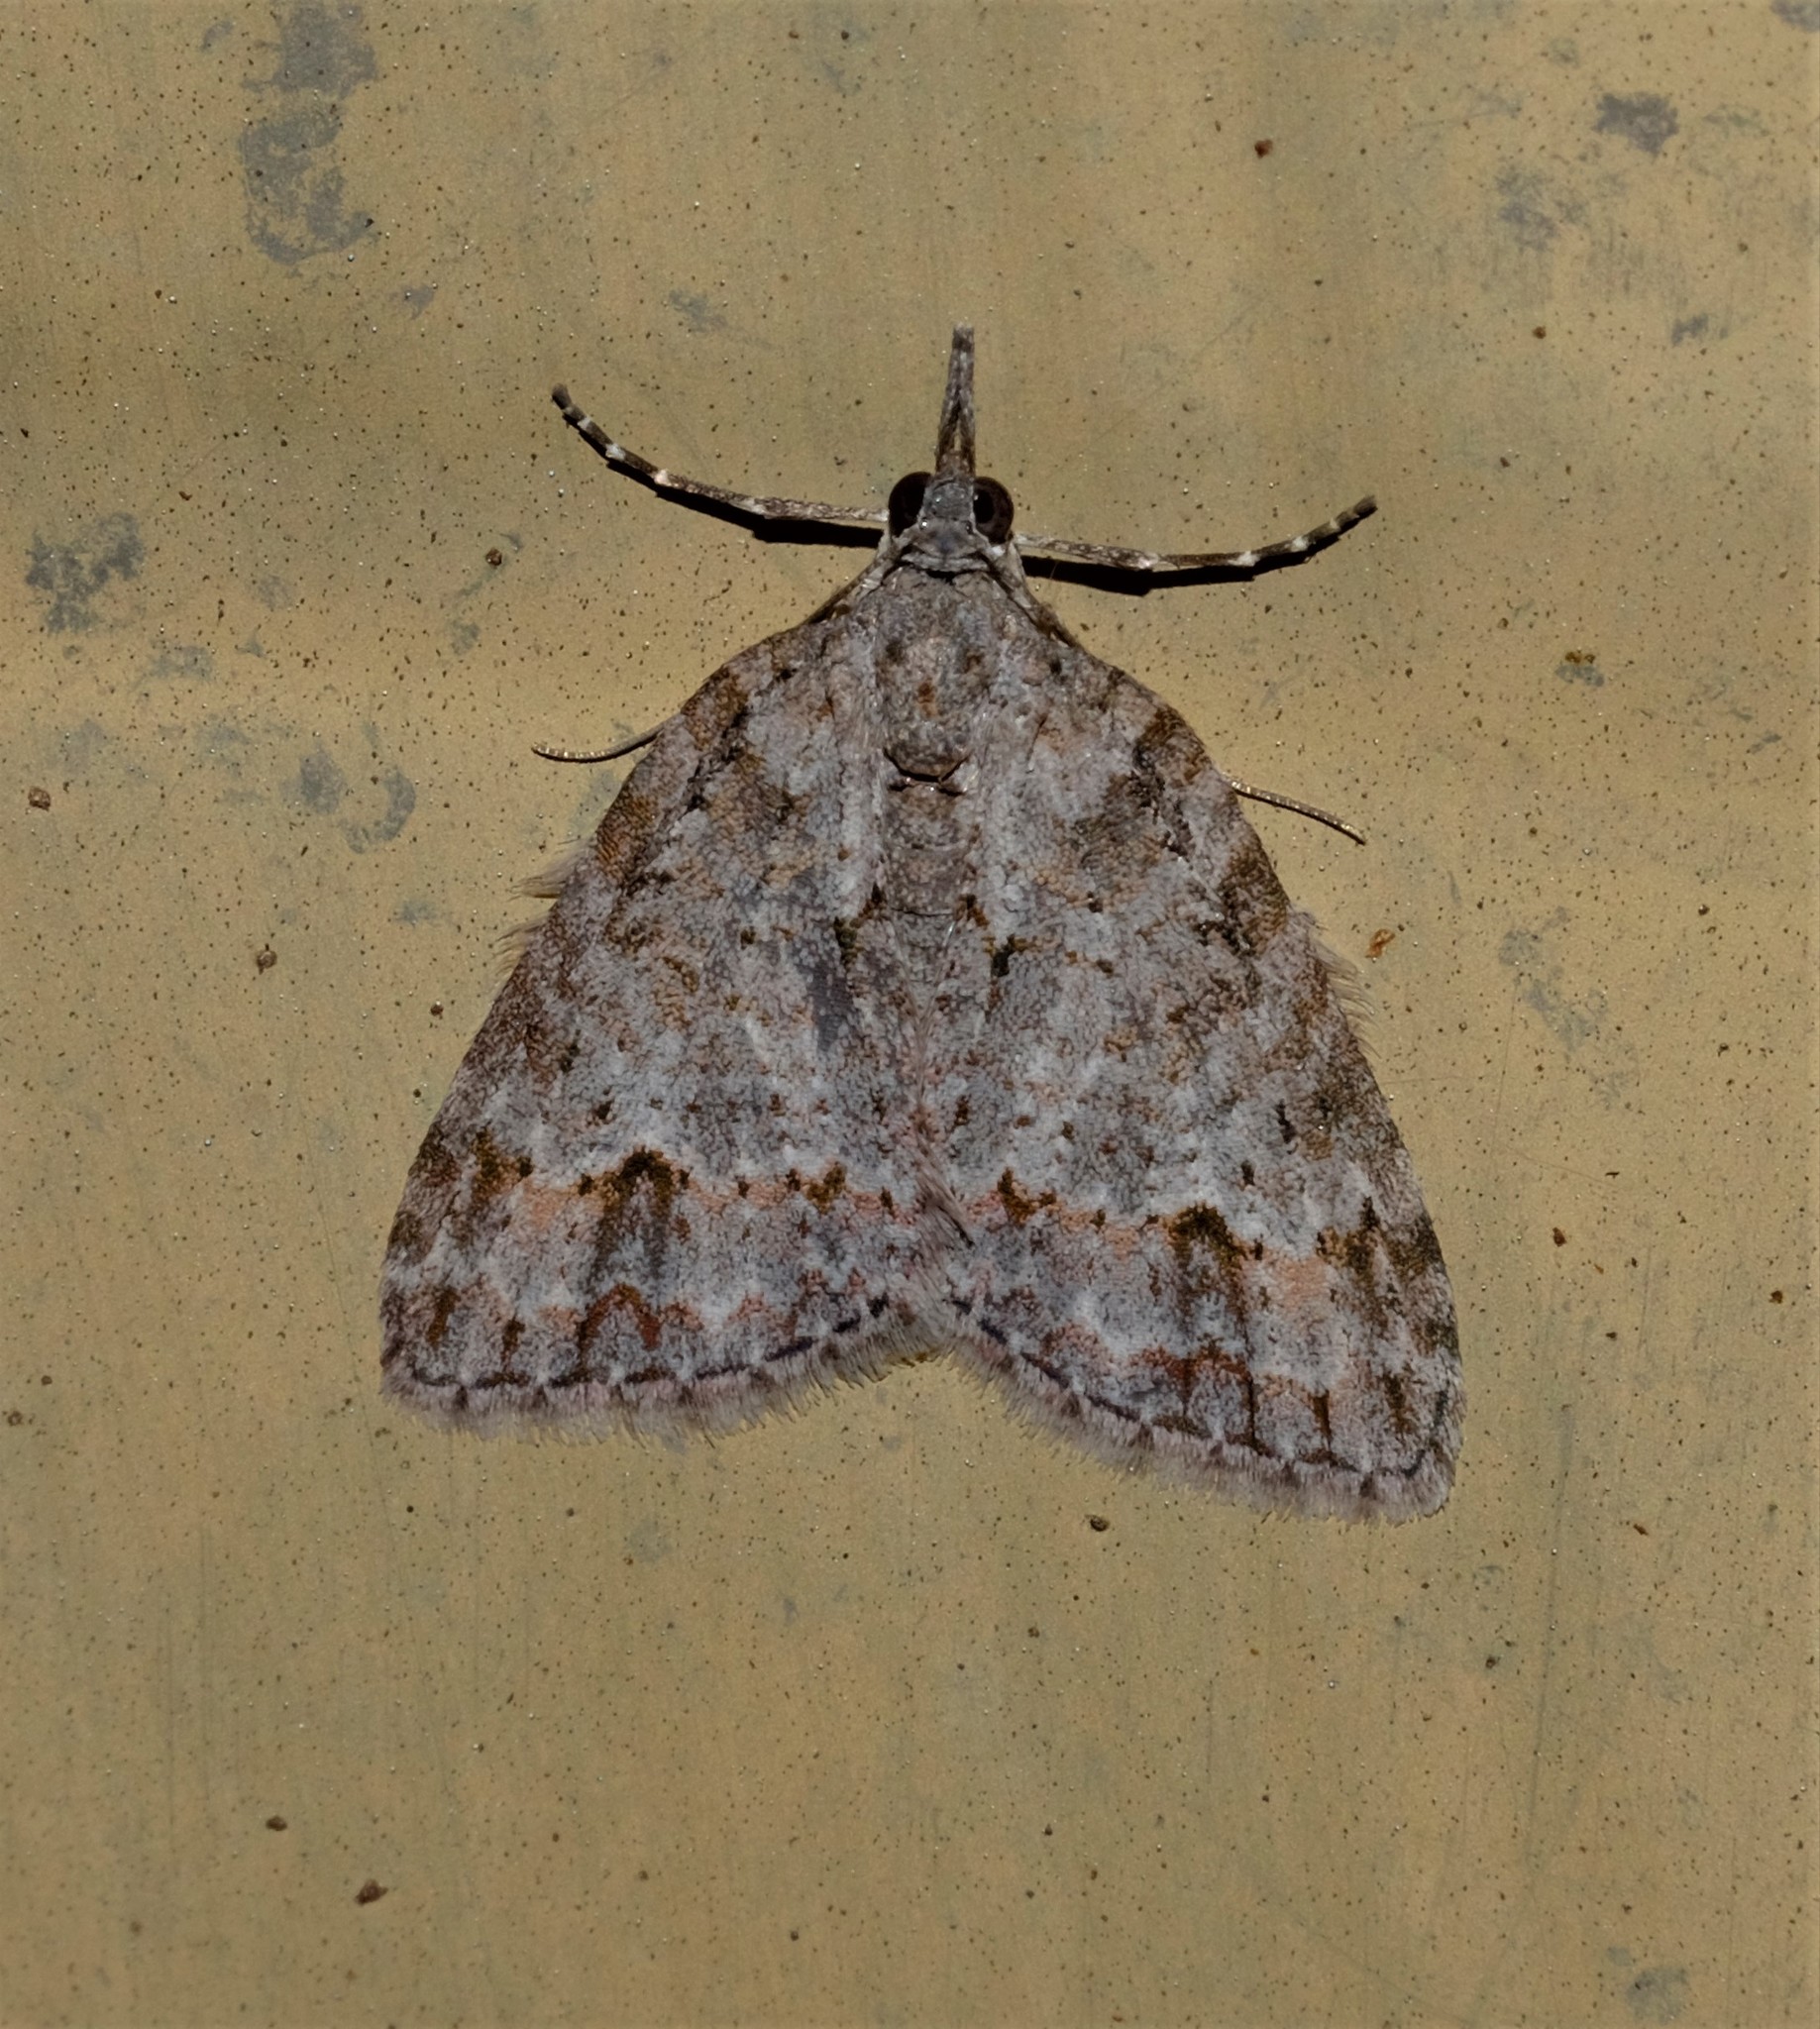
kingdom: Animalia
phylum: Arthropoda
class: Insecta
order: Lepidoptera
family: Geometridae
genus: Microdes
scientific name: Microdes villosata
